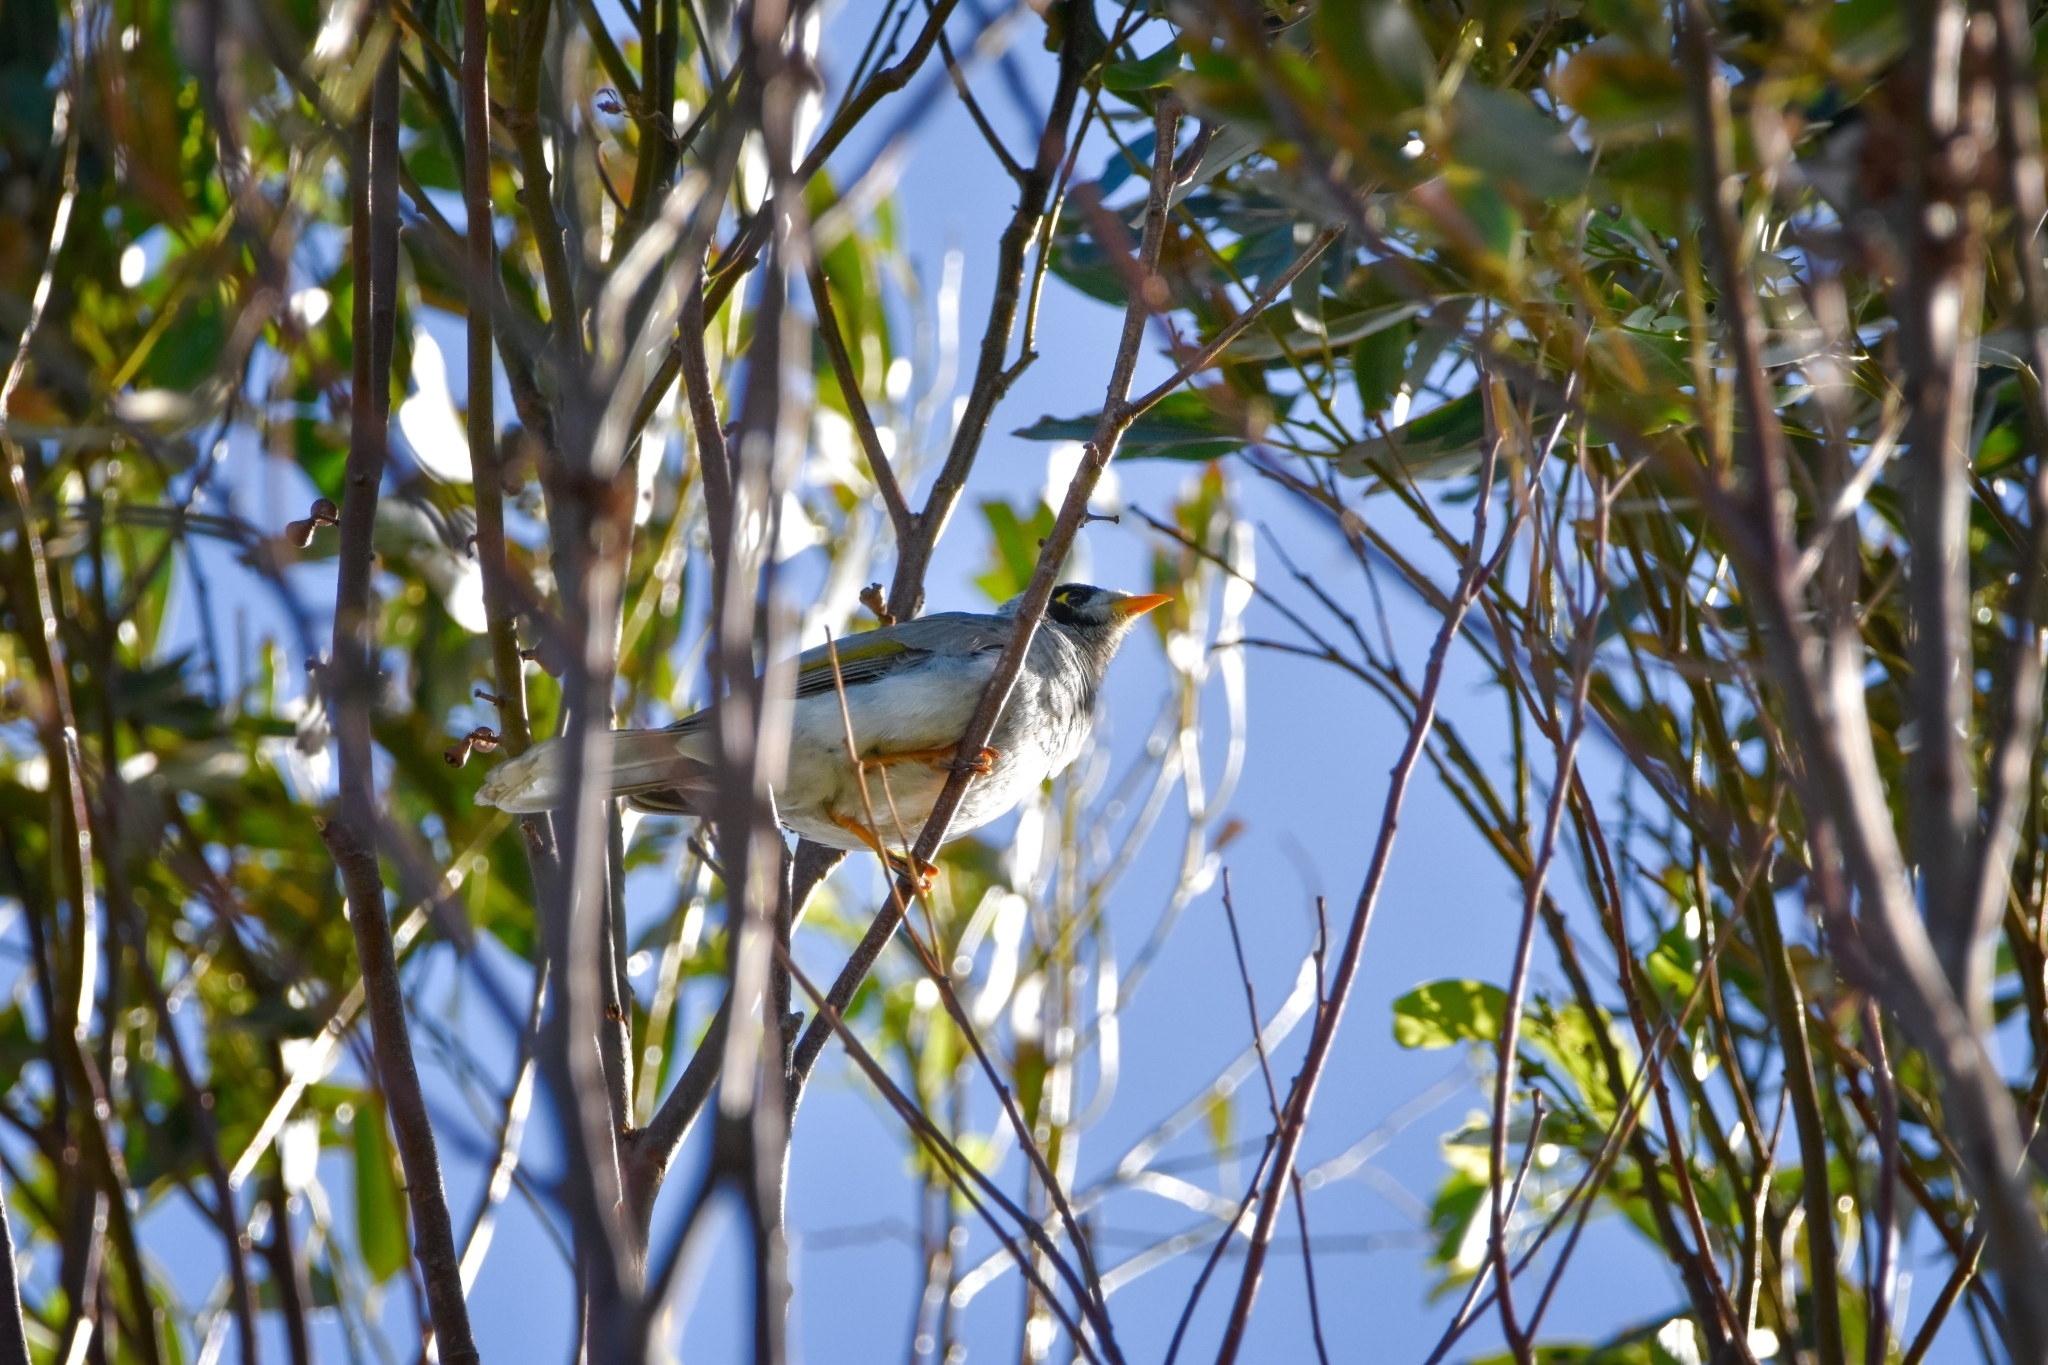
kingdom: Animalia
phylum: Chordata
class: Aves
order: Passeriformes
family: Meliphagidae
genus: Manorina
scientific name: Manorina melanocephala
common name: Noisy miner
